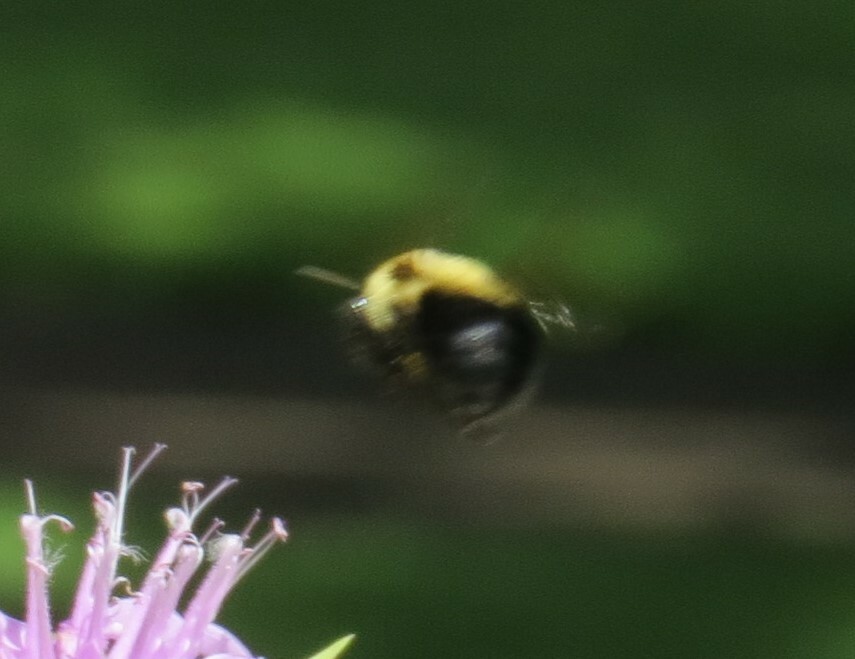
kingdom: Animalia
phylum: Arthropoda
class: Insecta
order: Hymenoptera
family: Apidae
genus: Bombus
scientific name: Bombus bimaculatus
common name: Two-spotted bumble bee
